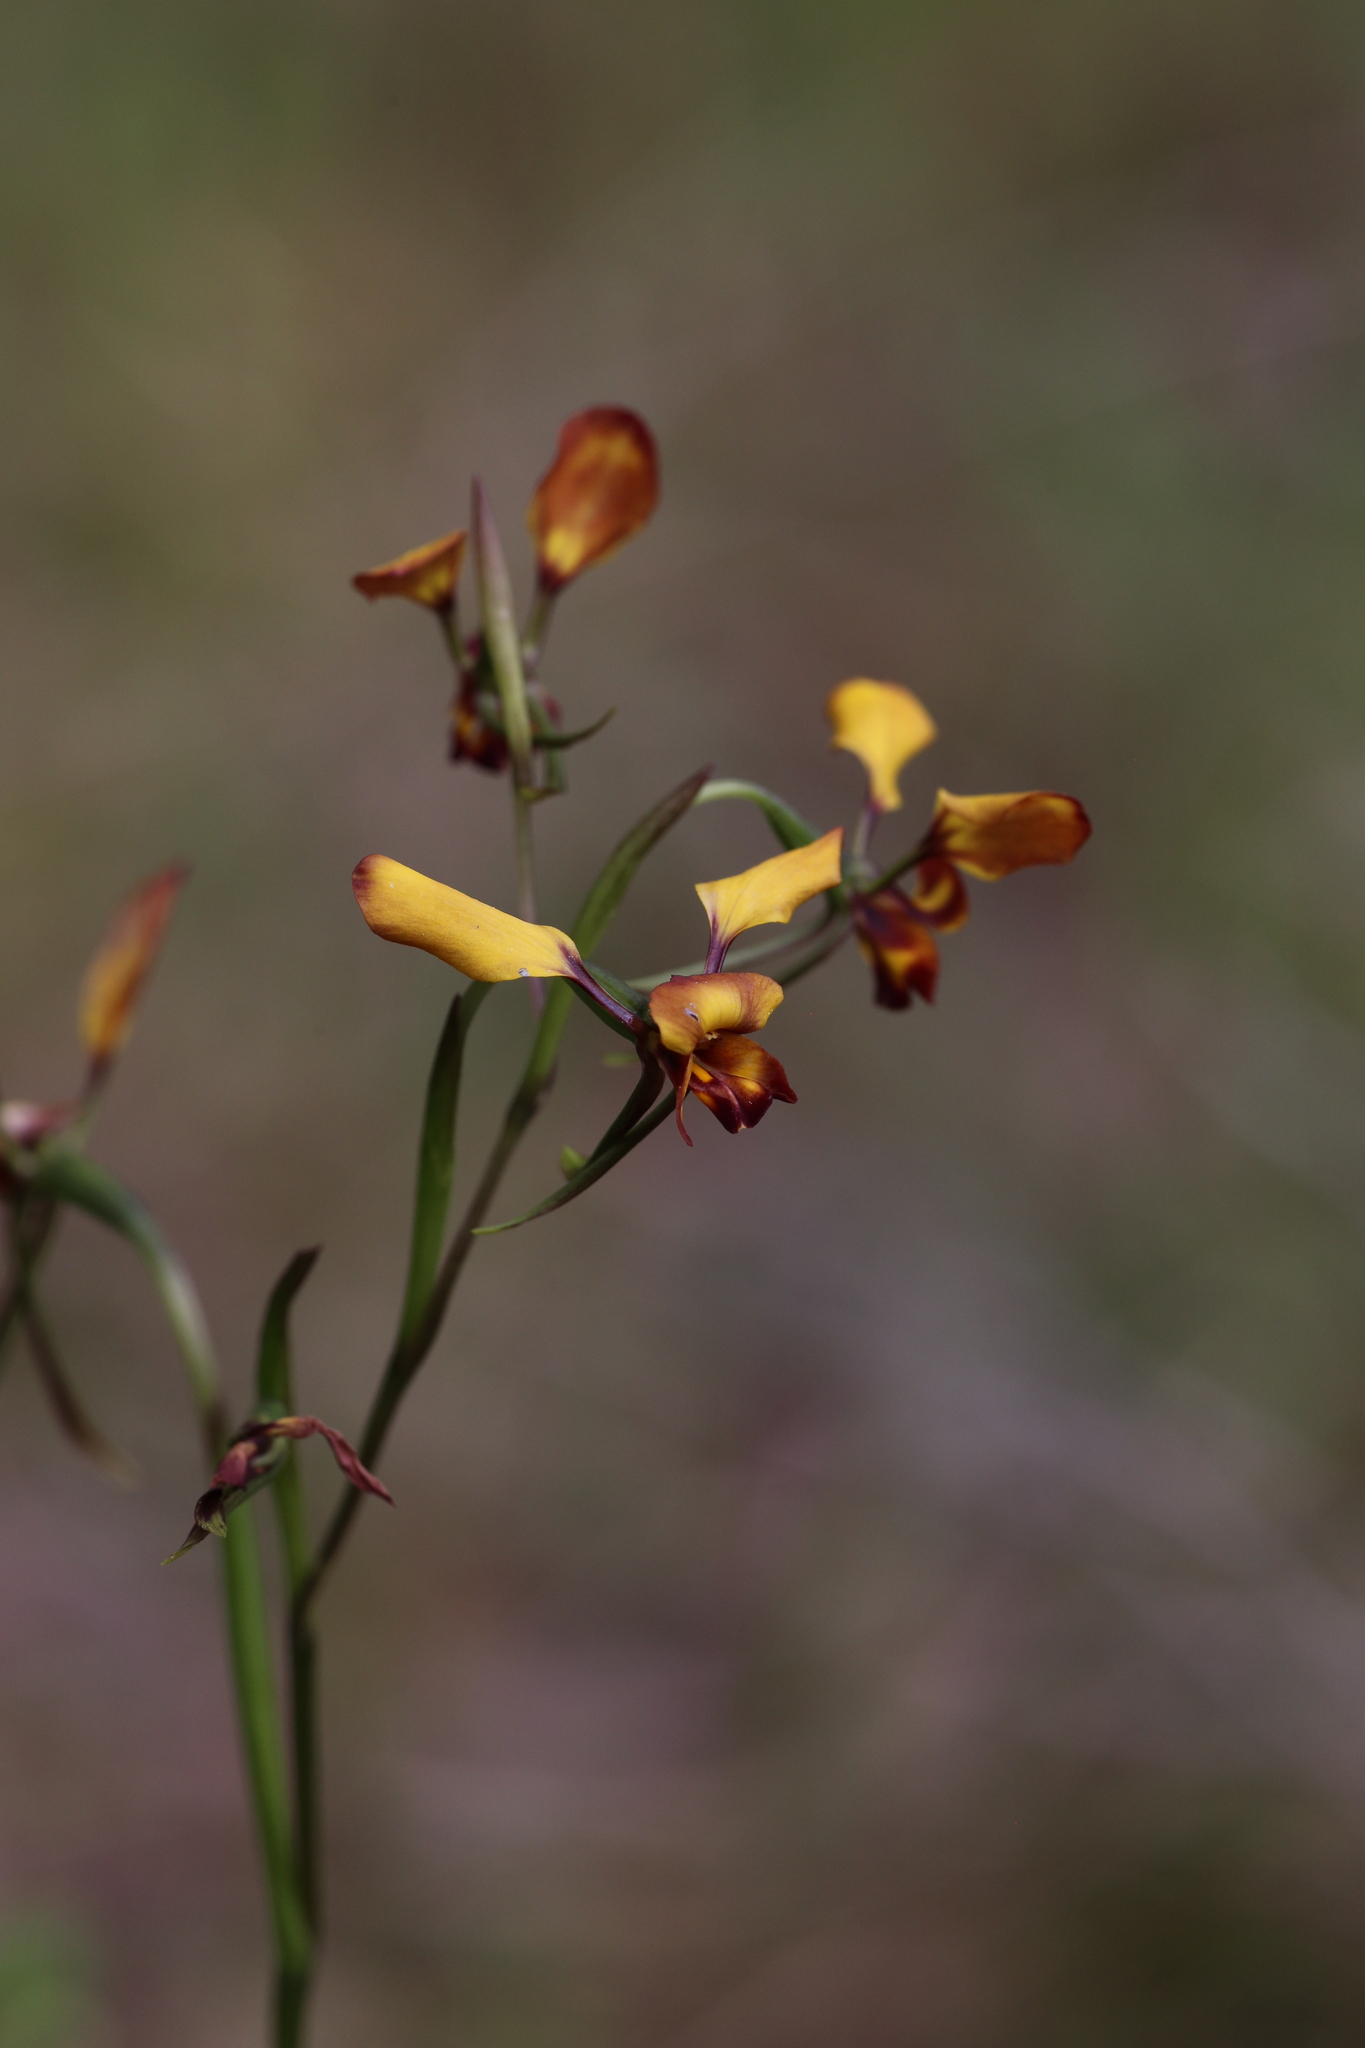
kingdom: Plantae
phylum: Tracheophyta
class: Liliopsida
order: Asparagales
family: Orchidaceae
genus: Diuris
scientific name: Diuris cruenta
